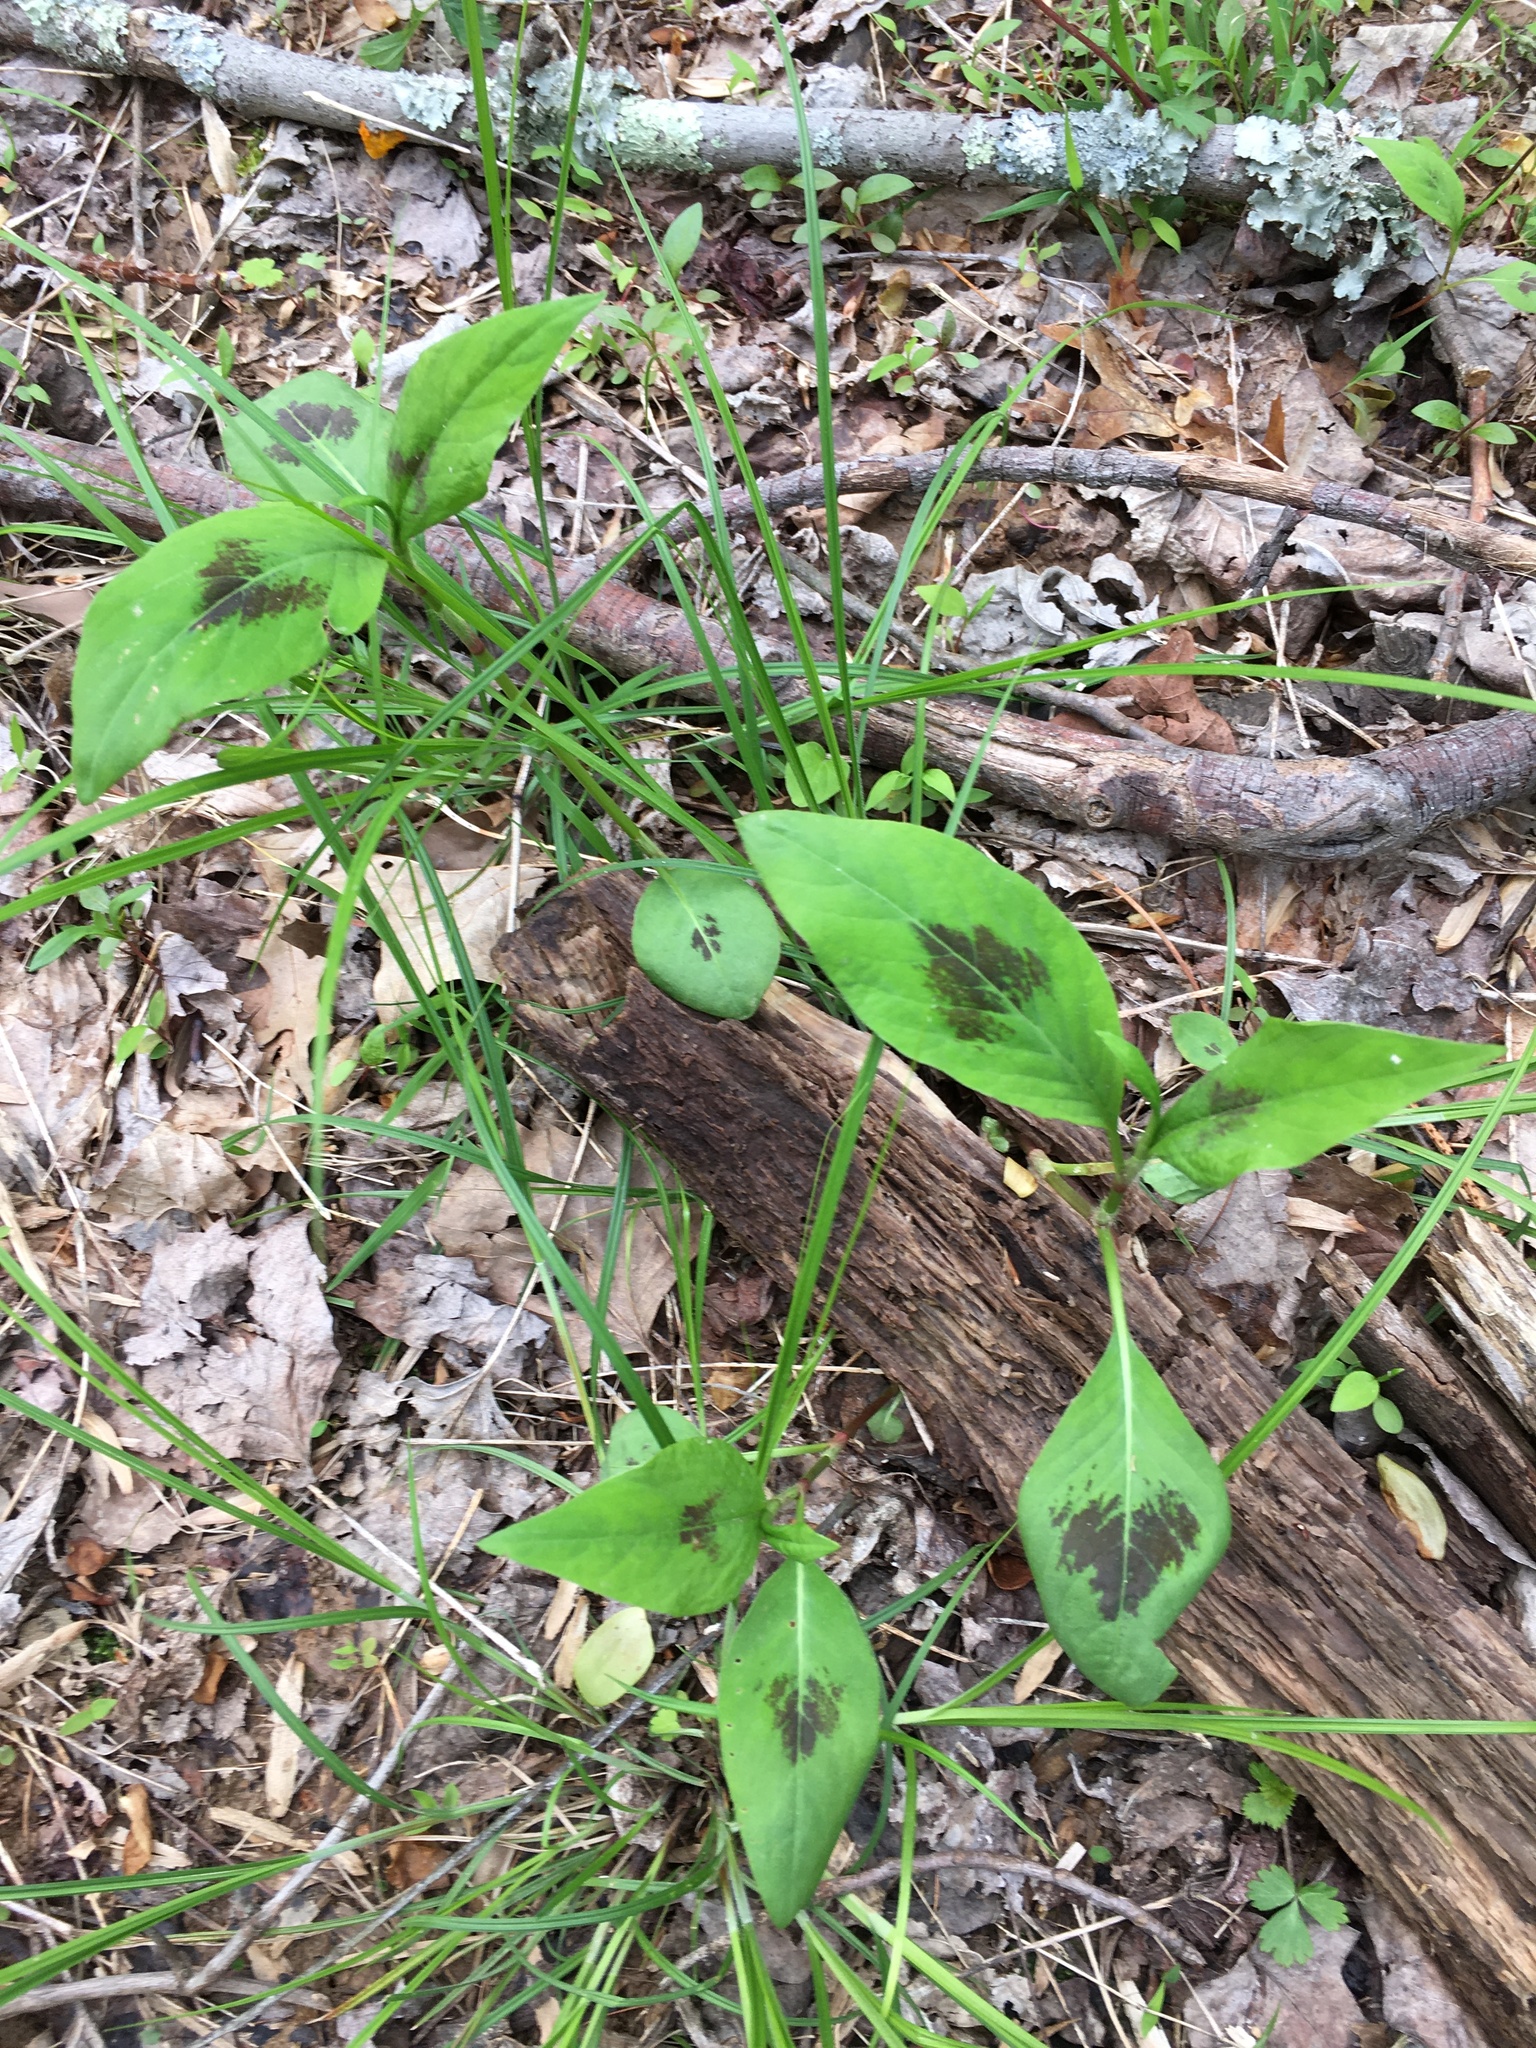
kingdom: Plantae
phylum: Tracheophyta
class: Magnoliopsida
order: Caryophyllales
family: Polygonaceae
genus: Persicaria
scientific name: Persicaria virginiana
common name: Jumpseed
